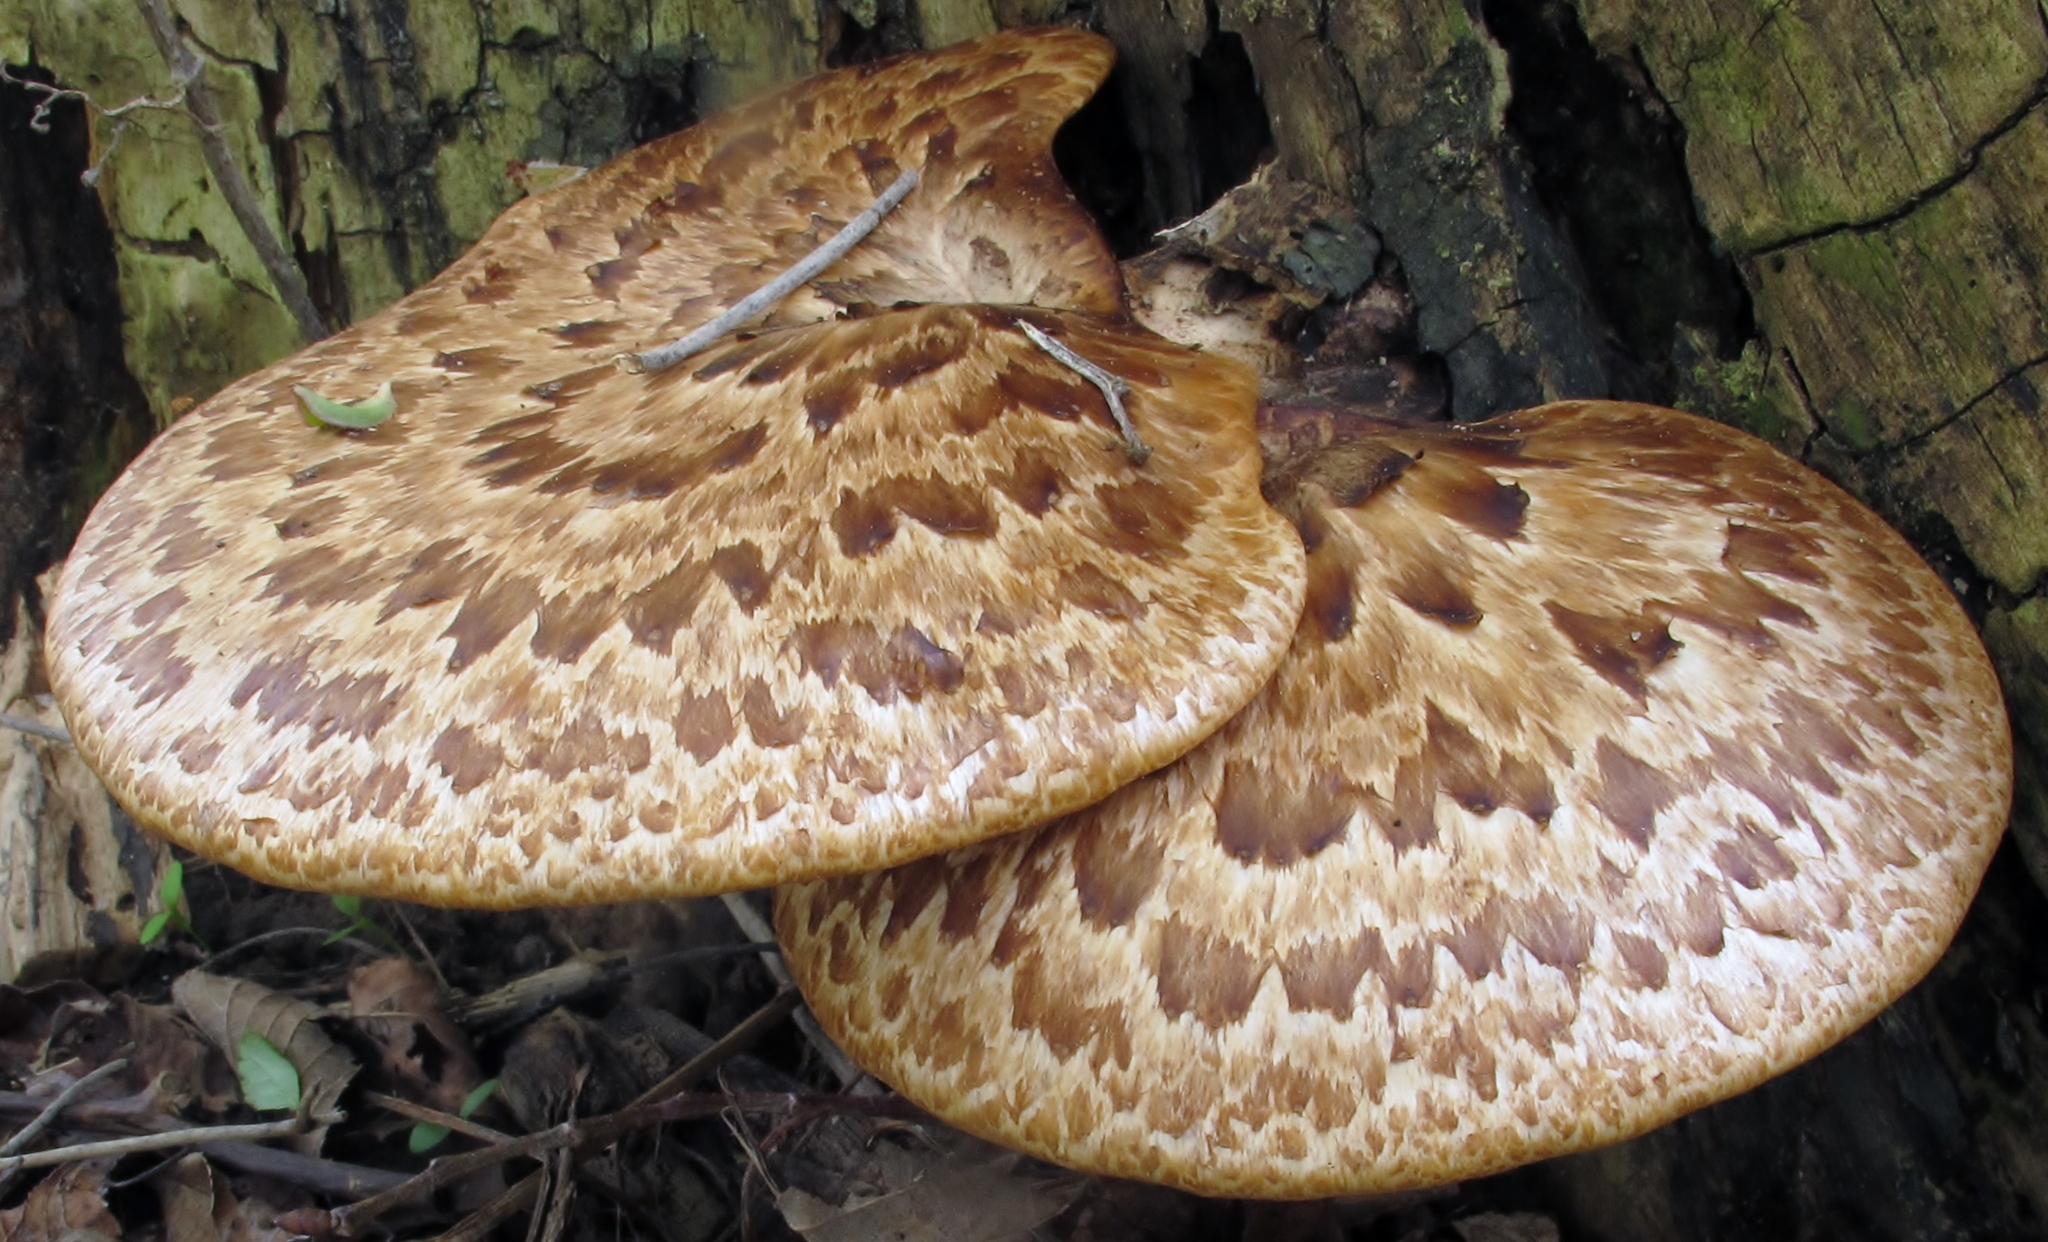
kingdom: Fungi
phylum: Basidiomycota
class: Agaricomycetes
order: Polyporales
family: Polyporaceae
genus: Cerioporus
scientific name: Cerioporus squamosus
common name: Dryad's saddle
